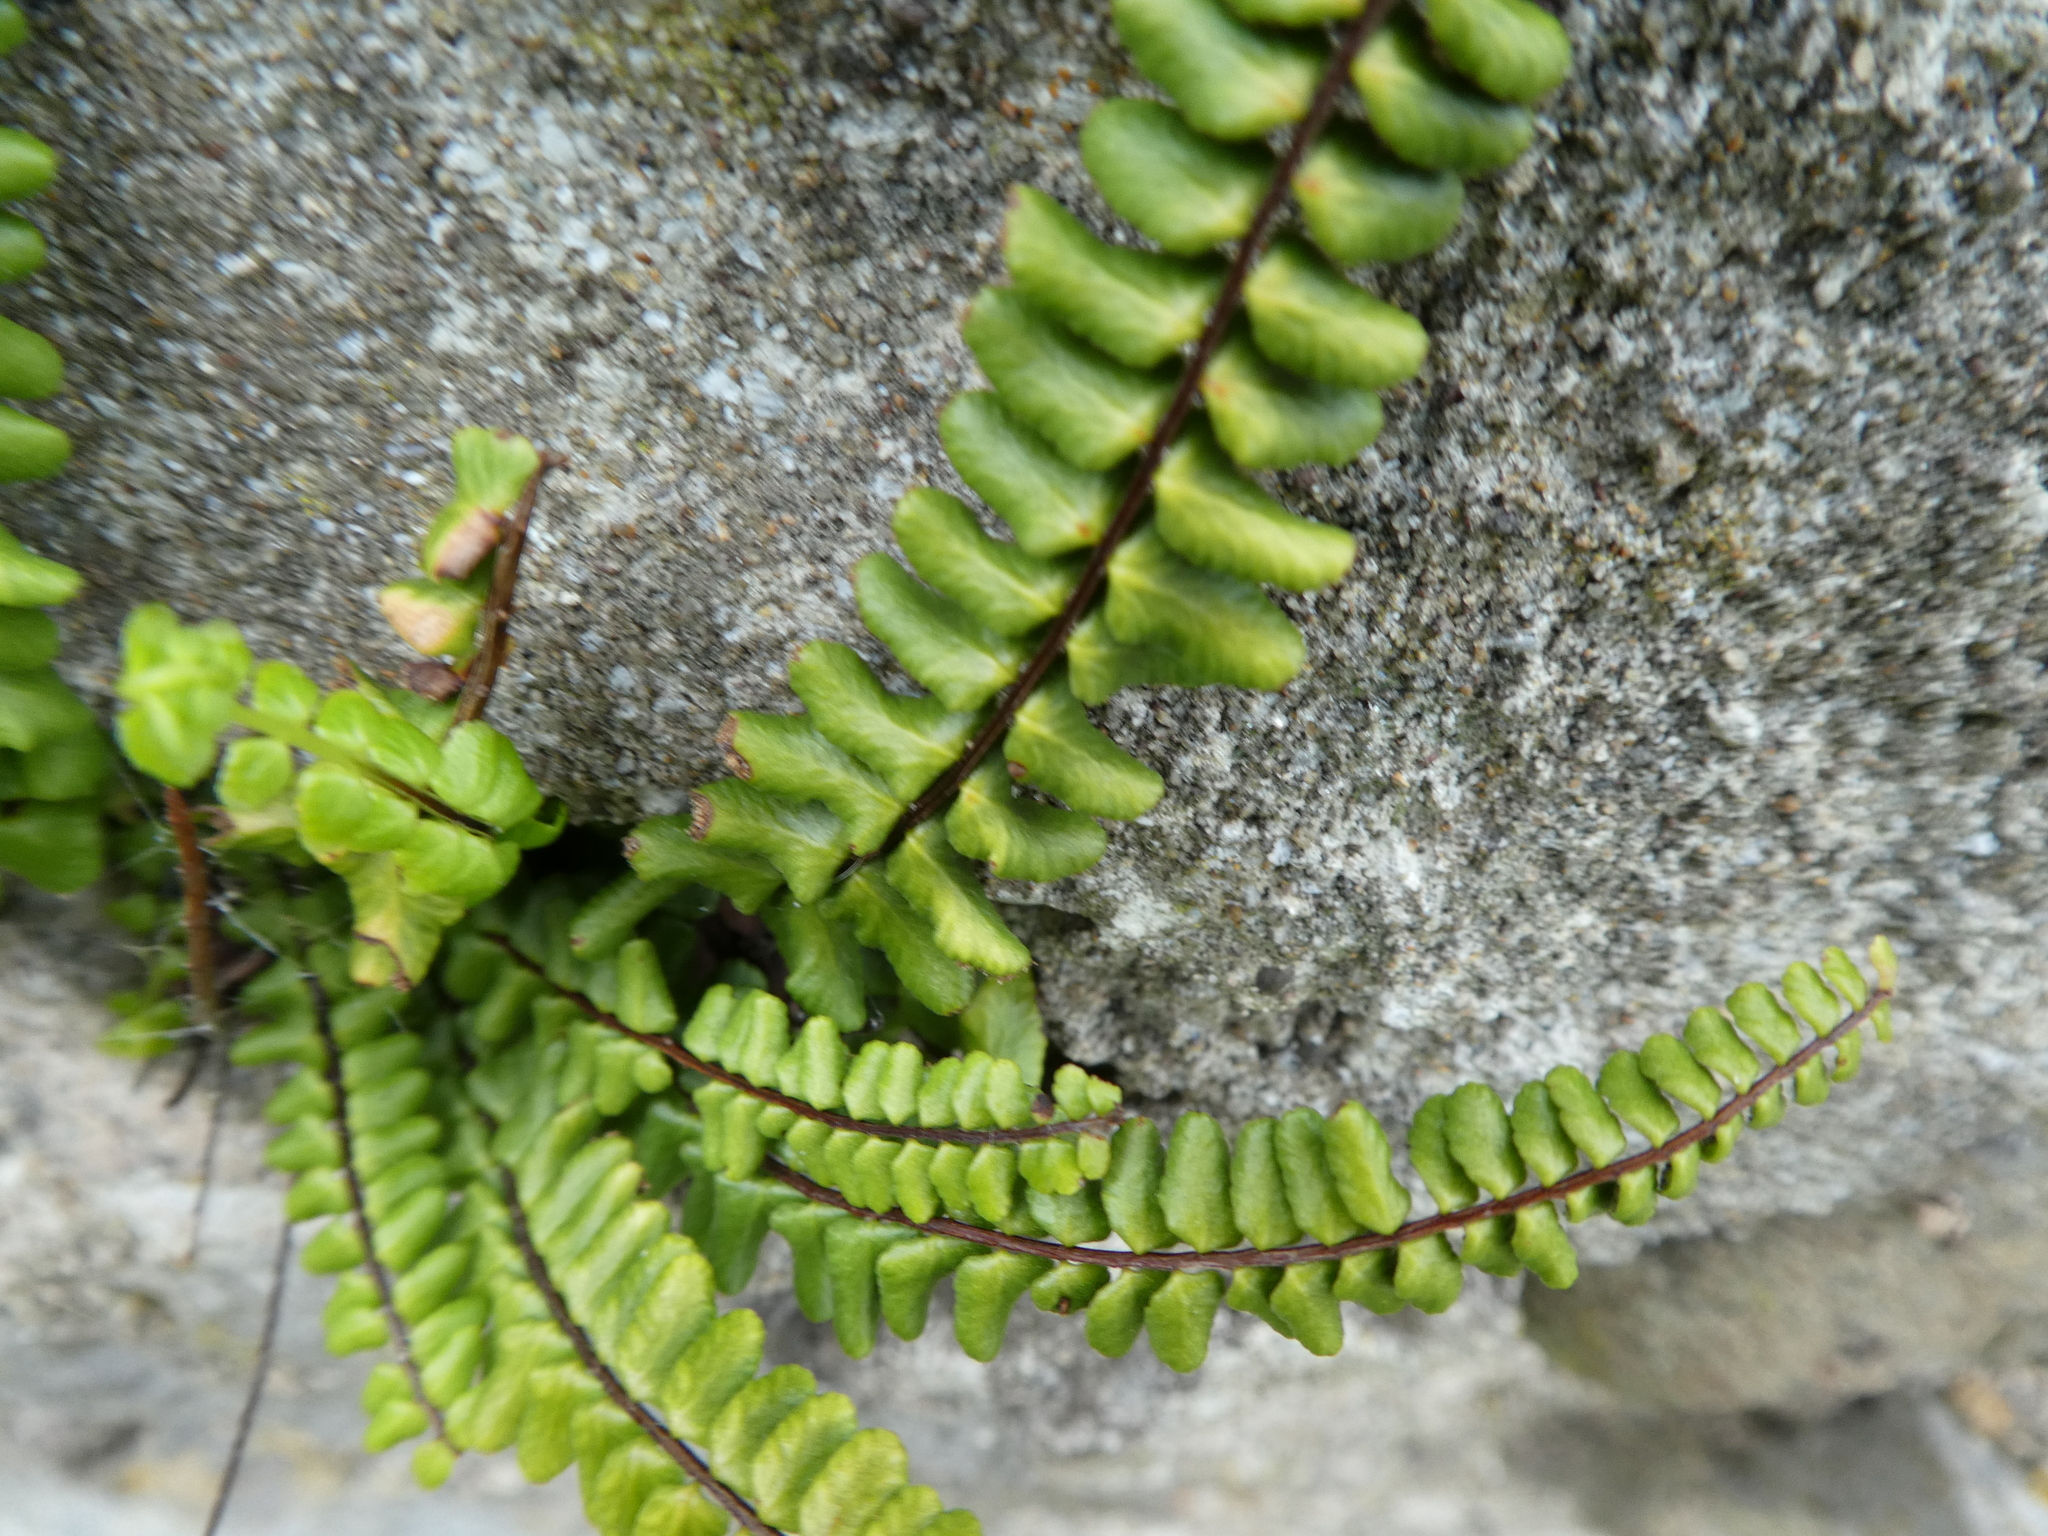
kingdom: Plantae
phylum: Tracheophyta
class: Polypodiopsida
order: Polypodiales
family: Aspleniaceae
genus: Asplenium
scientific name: Asplenium trichomanes
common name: Maidenhair spleenwort
